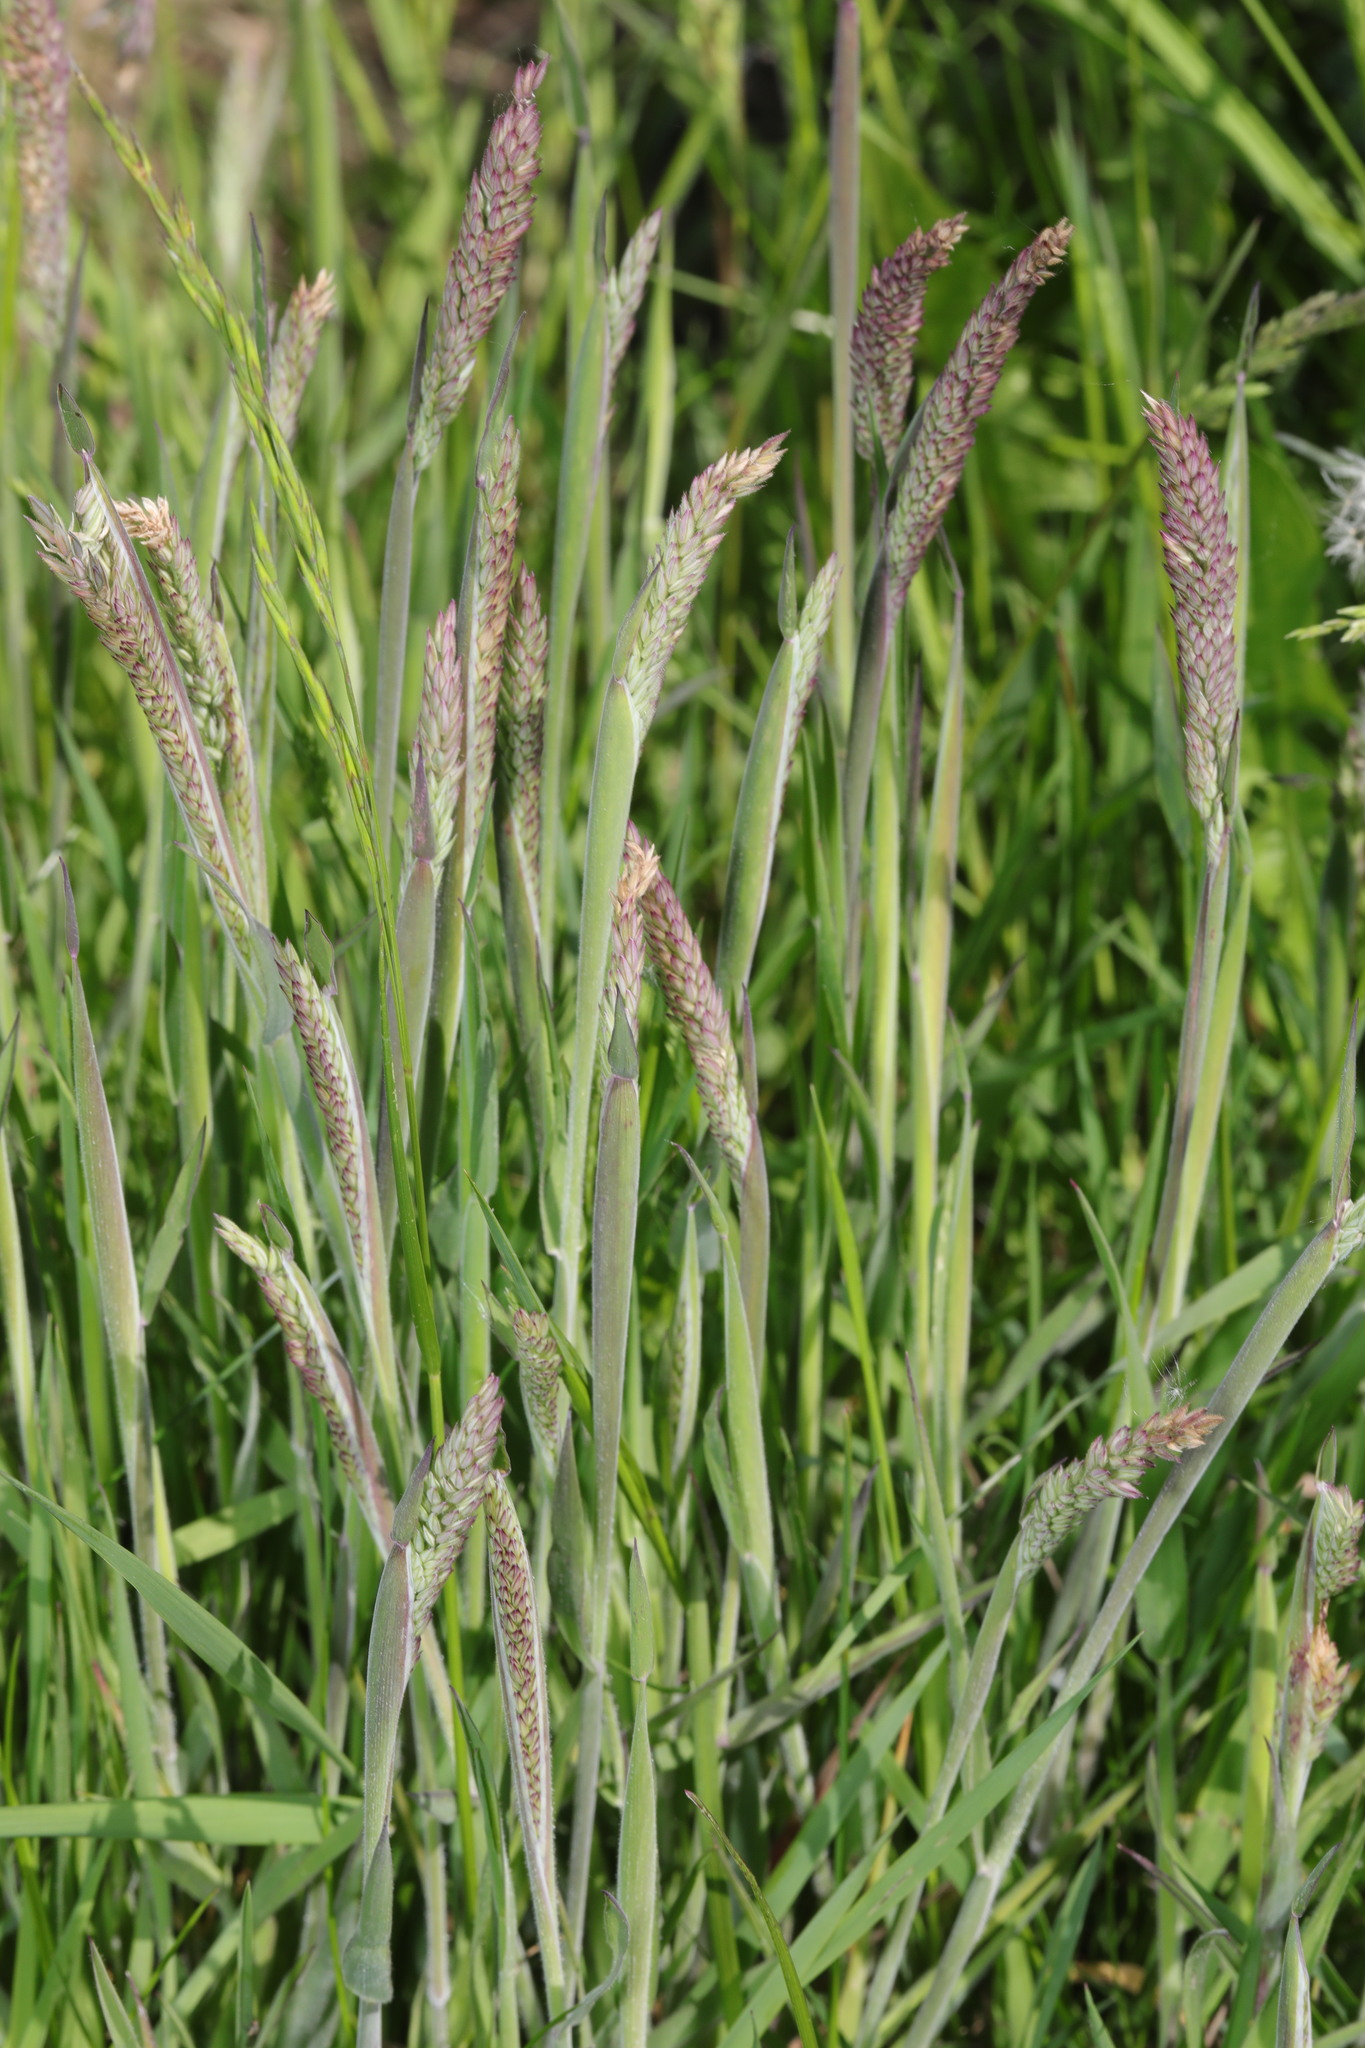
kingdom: Plantae
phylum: Tracheophyta
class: Liliopsida
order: Poales
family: Poaceae
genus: Holcus
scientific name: Holcus lanatus
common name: Yorkshire-fog
